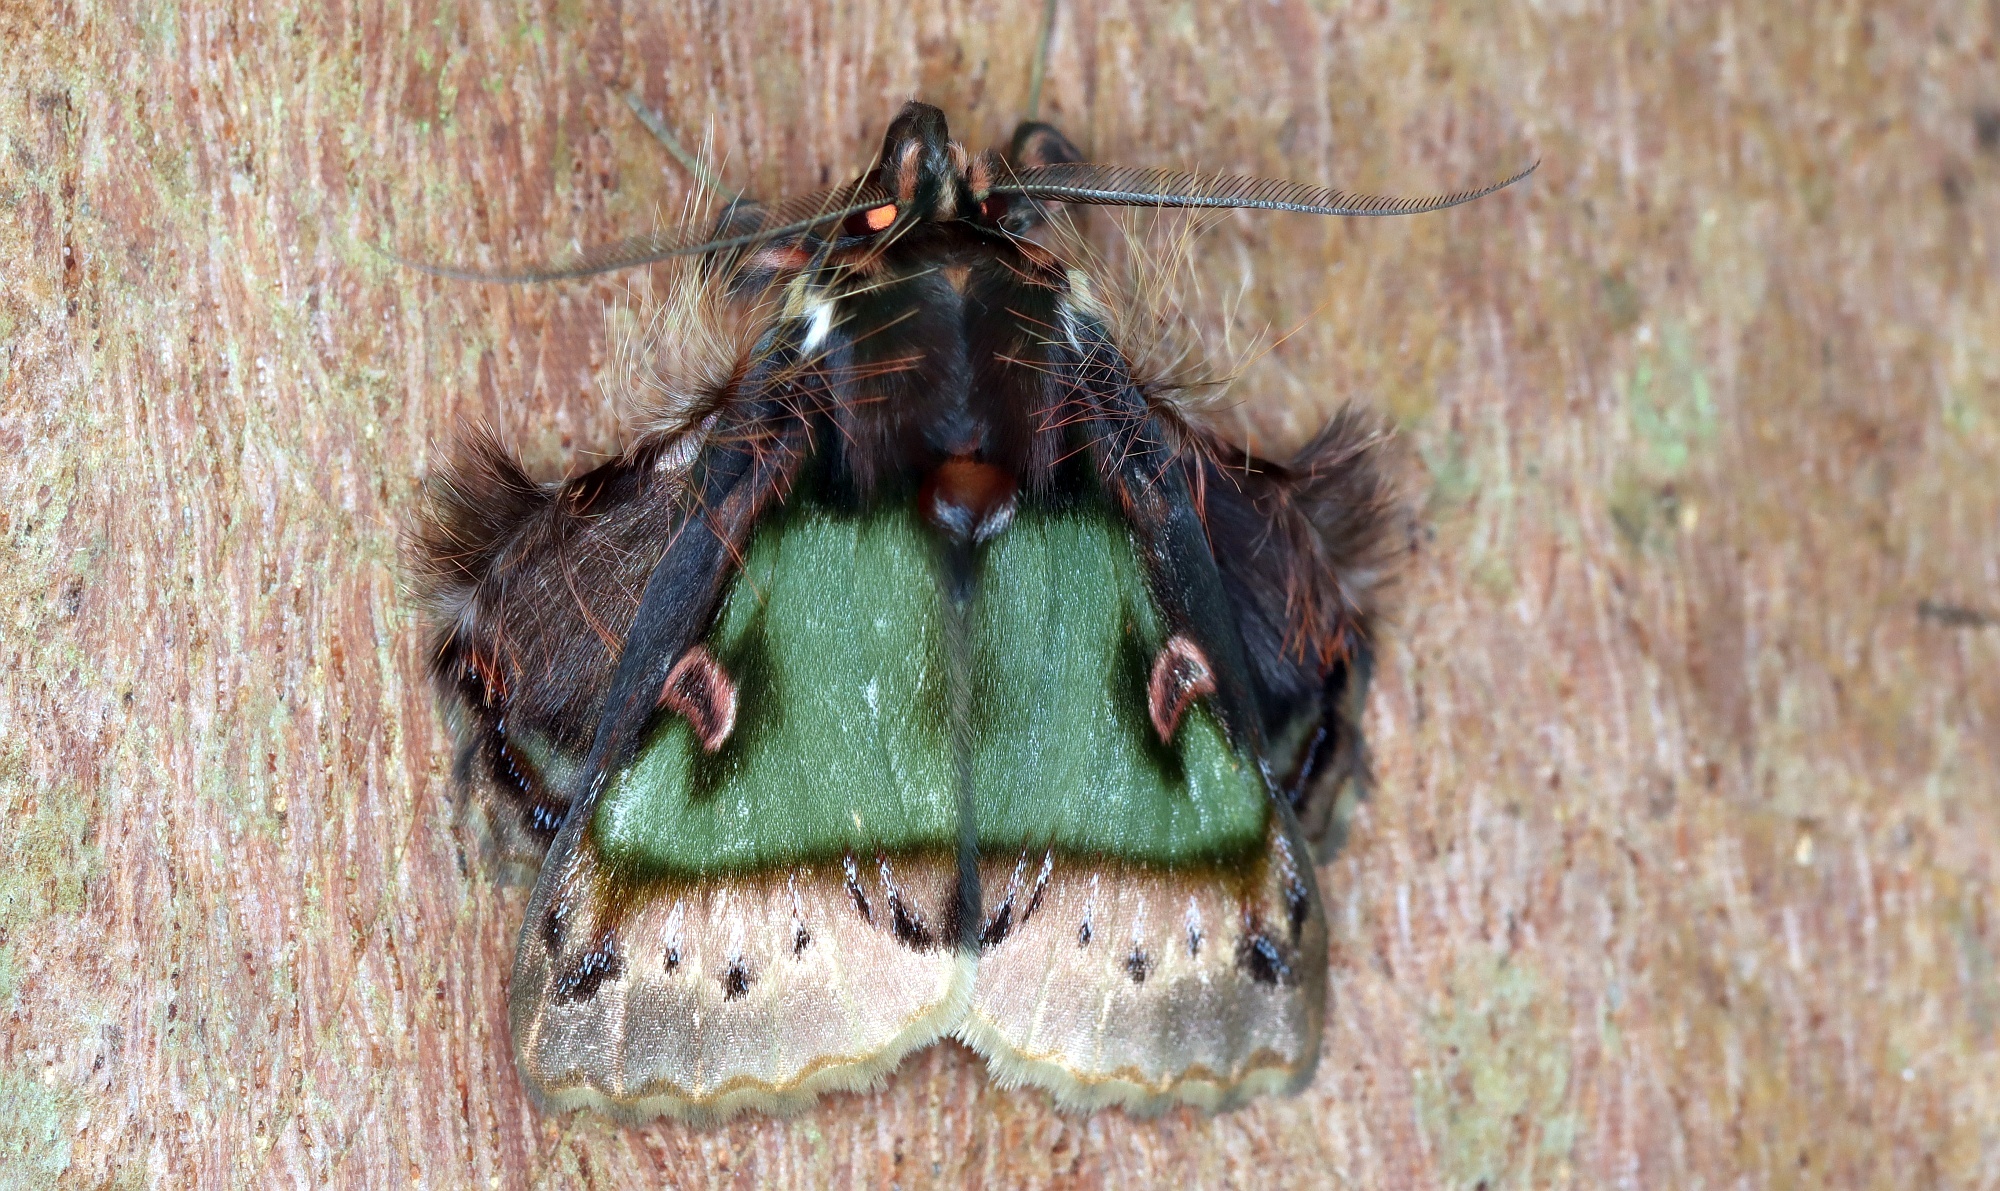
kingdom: Animalia
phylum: Arthropoda
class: Insecta
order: Lepidoptera
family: Erebidae
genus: Ceroctena
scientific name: Ceroctena amynta
